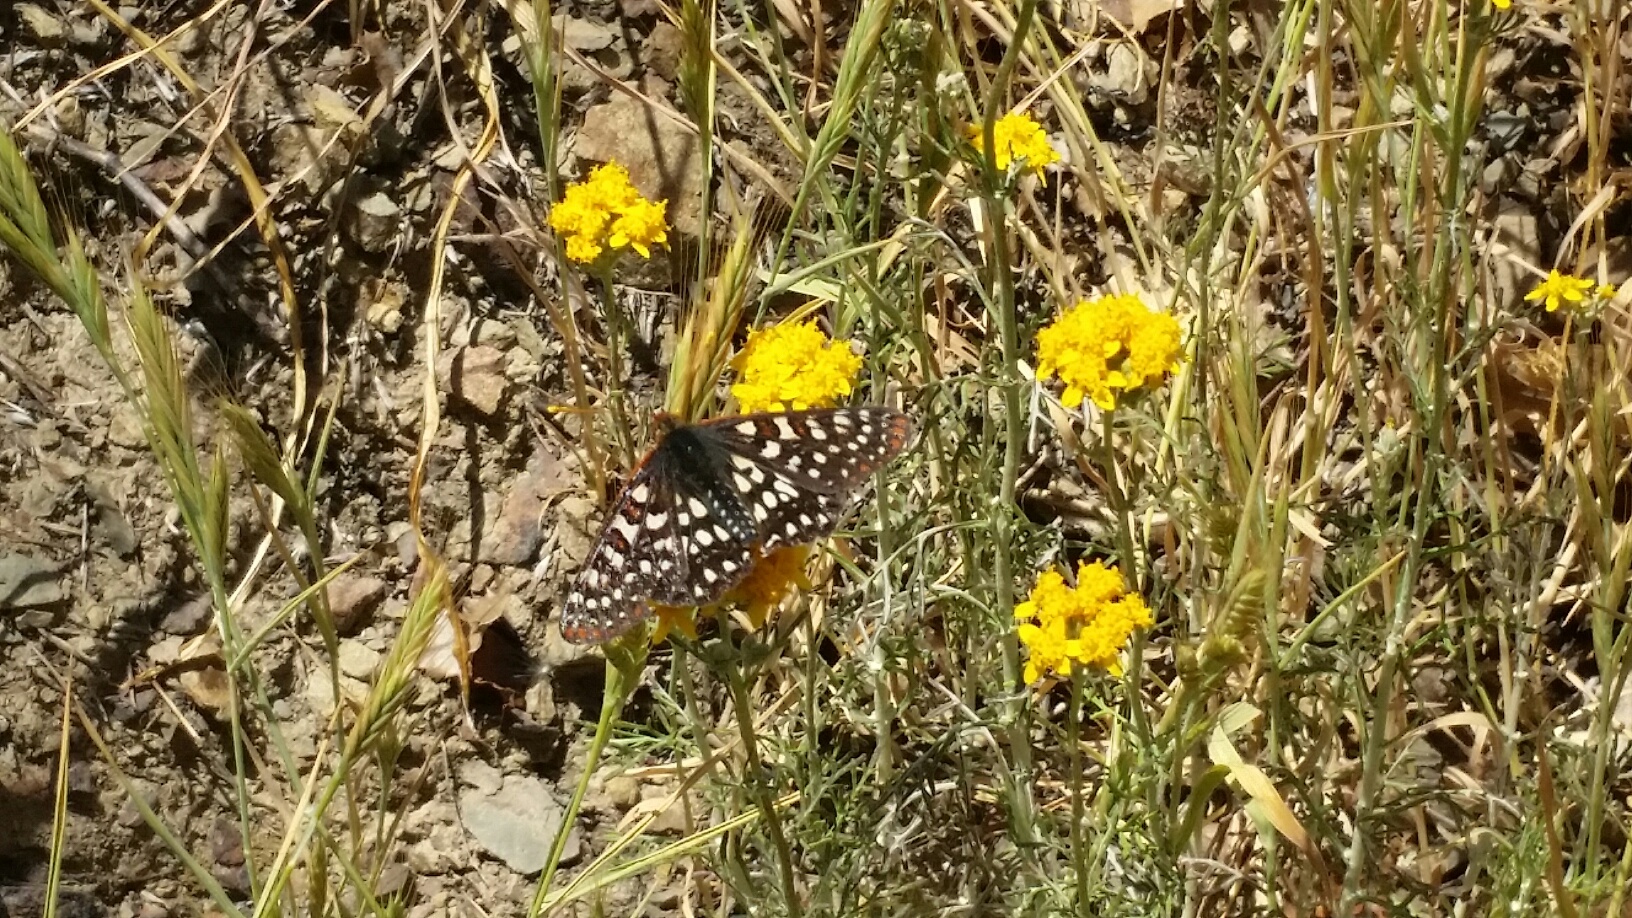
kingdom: Animalia
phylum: Arthropoda
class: Insecta
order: Lepidoptera
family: Nymphalidae
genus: Occidryas
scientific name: Occidryas chalcedona
